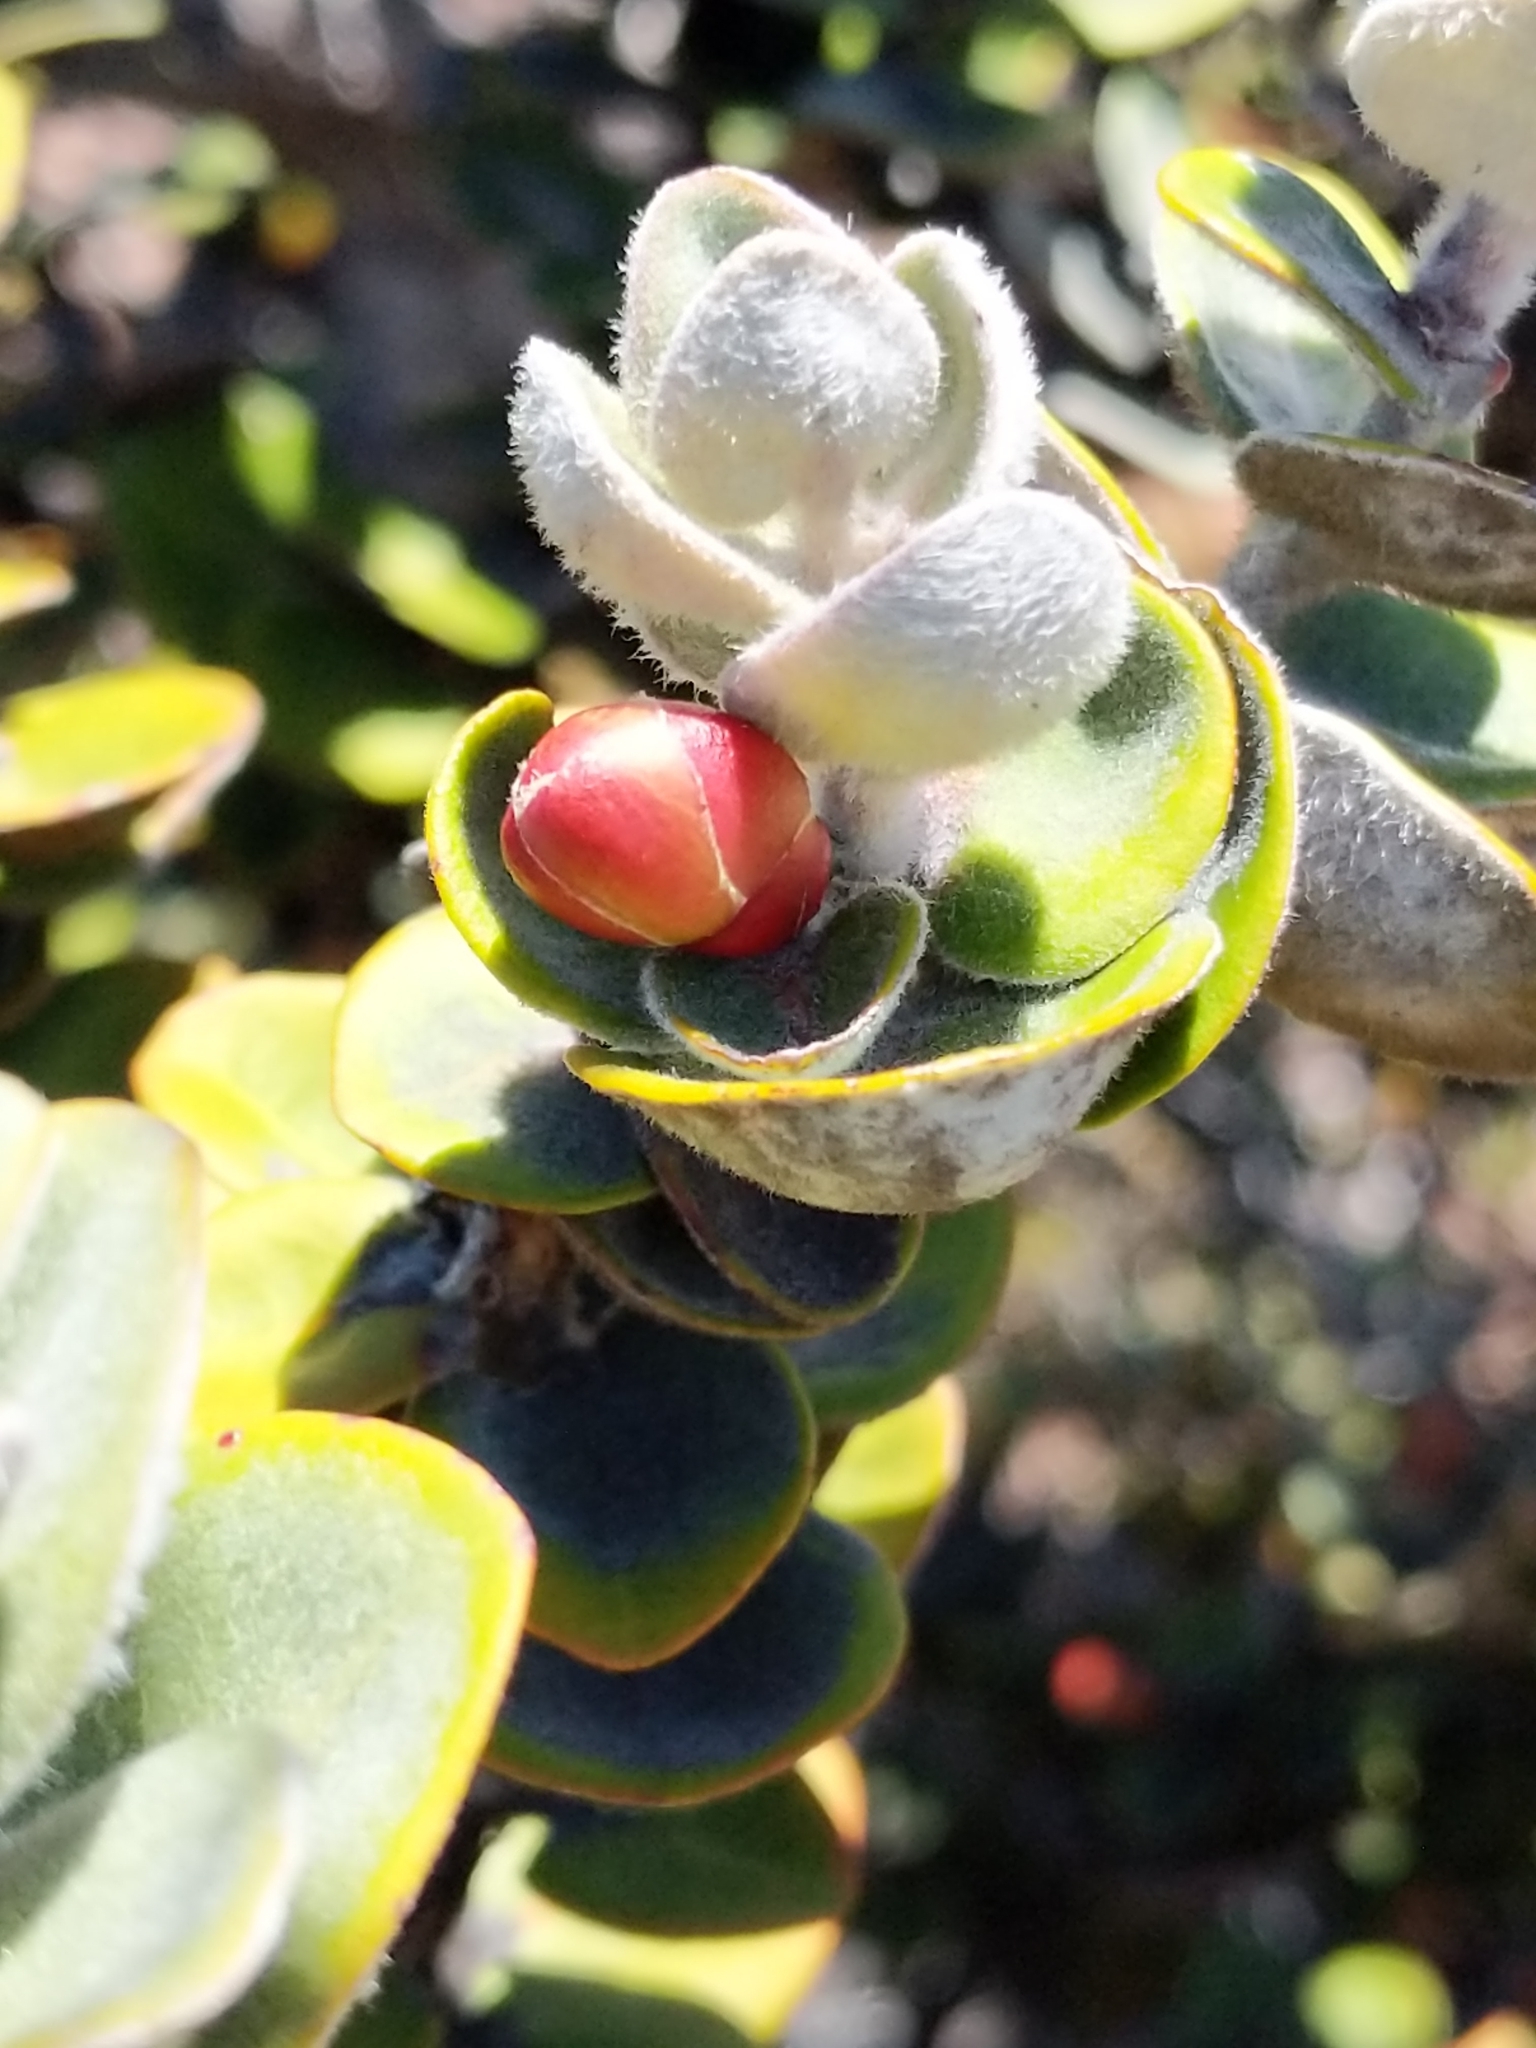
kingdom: Plantae
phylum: Tracheophyta
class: Magnoliopsida
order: Myrtales
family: Myrtaceae
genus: Metrosideros
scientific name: Metrosideros polymorpha
